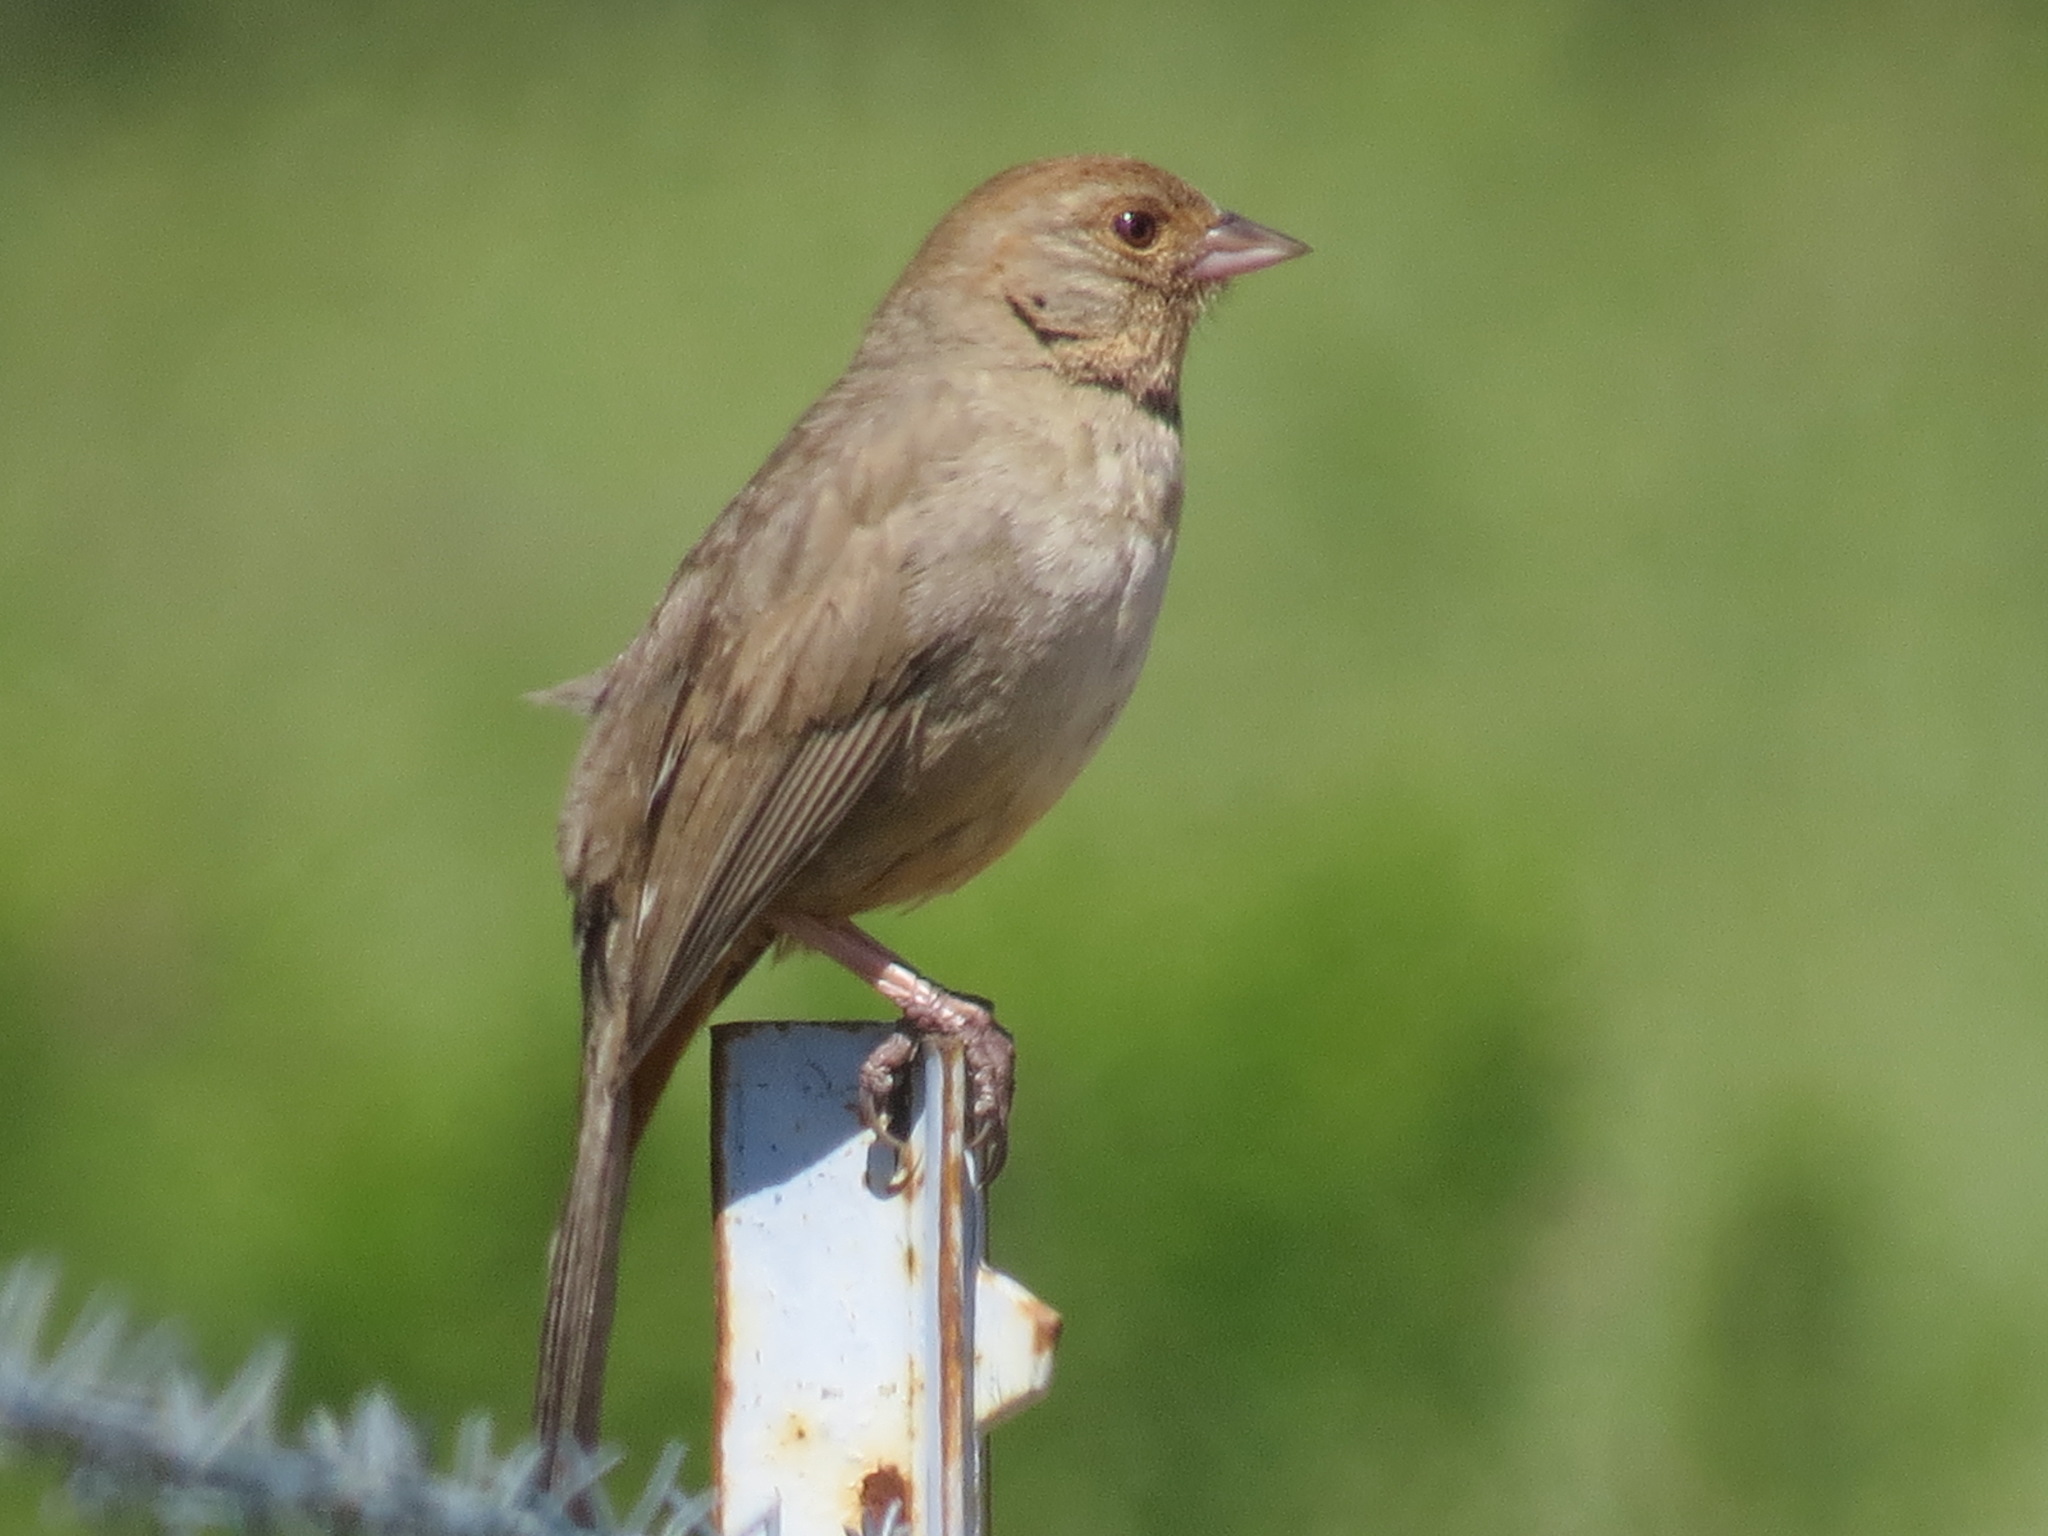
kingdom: Animalia
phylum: Chordata
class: Aves
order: Passeriformes
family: Passerellidae
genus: Melozone
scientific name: Melozone crissalis
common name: California towhee
